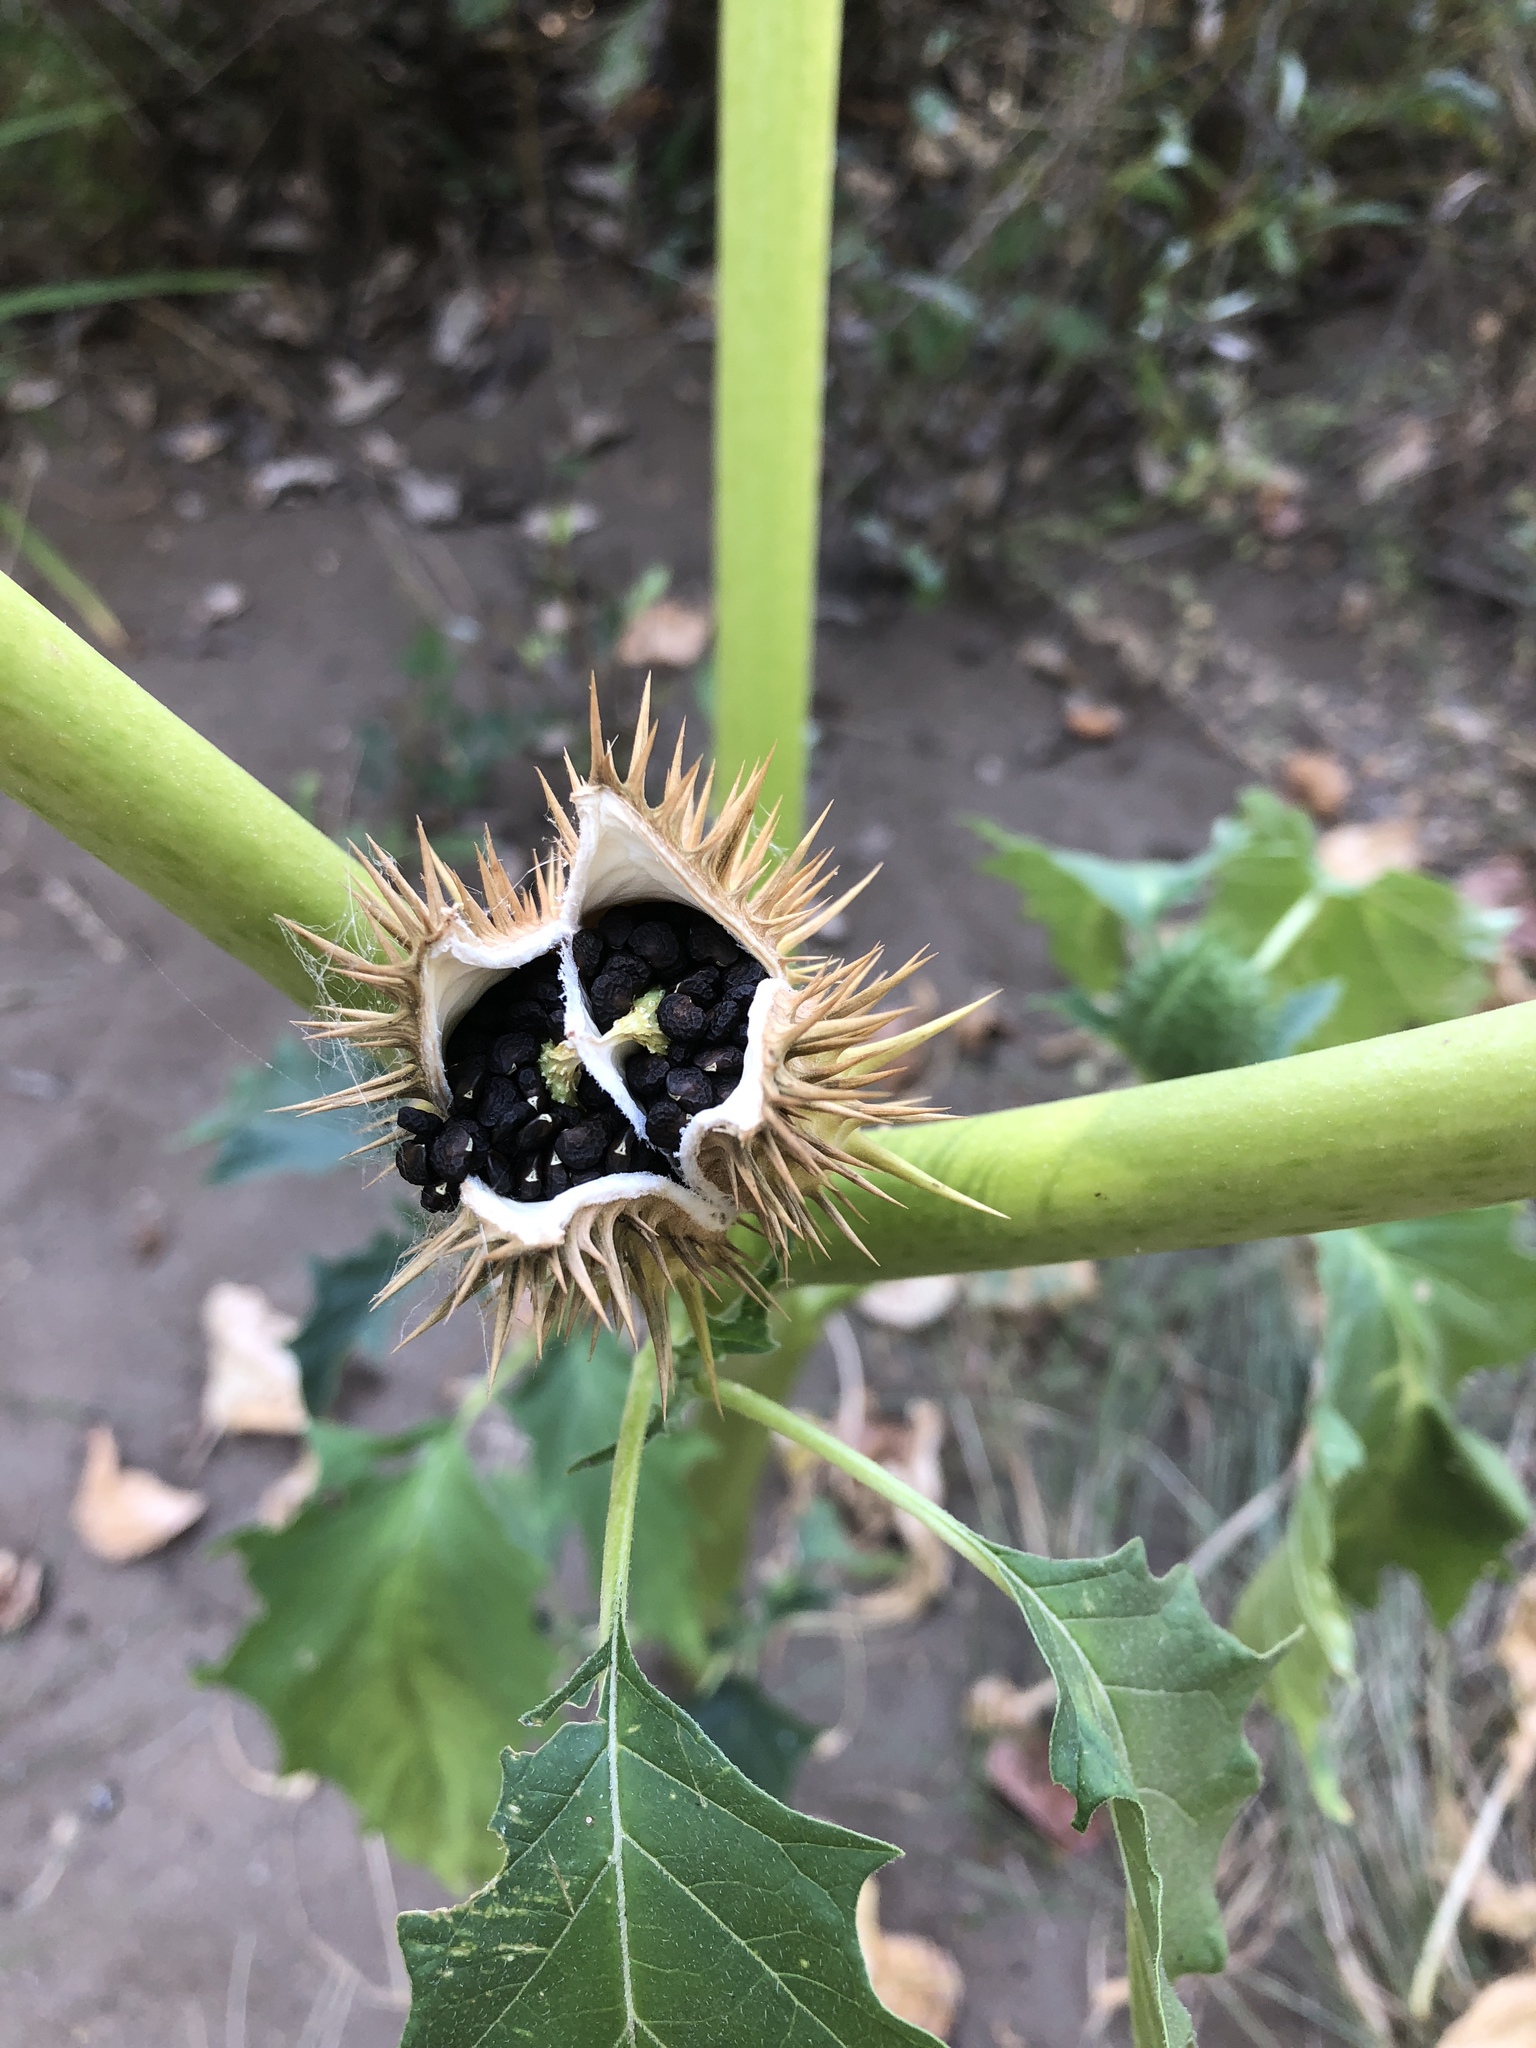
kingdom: Plantae
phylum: Tracheophyta
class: Magnoliopsida
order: Solanales
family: Solanaceae
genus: Datura
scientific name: Datura stramonium
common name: Thorn-apple
